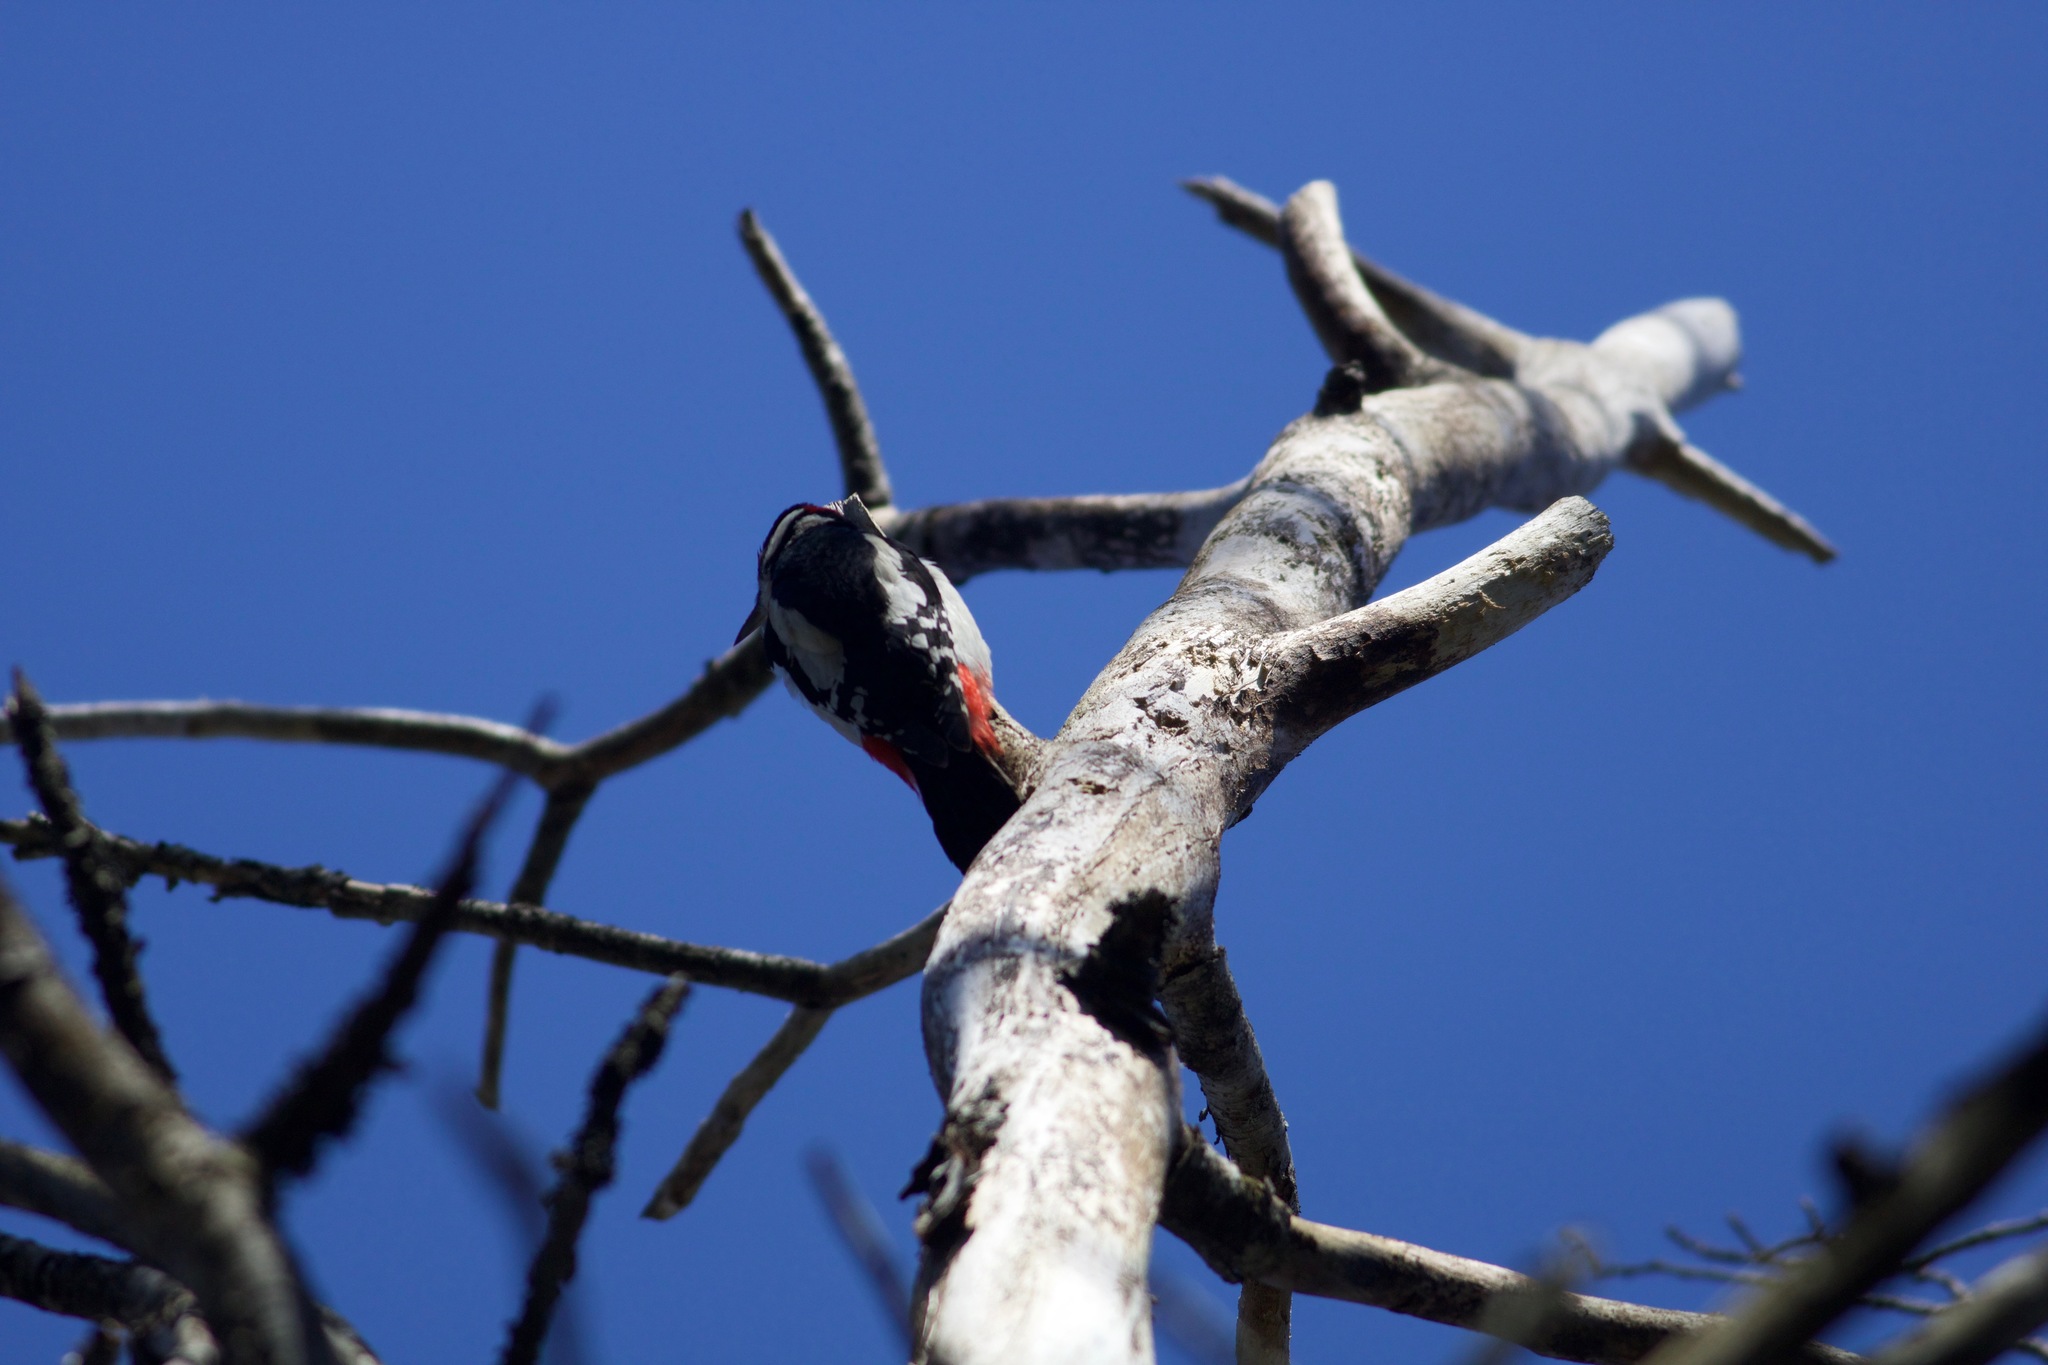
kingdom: Animalia
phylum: Chordata
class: Aves
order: Piciformes
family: Picidae
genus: Dendrocopos
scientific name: Dendrocopos major
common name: Great spotted woodpecker
